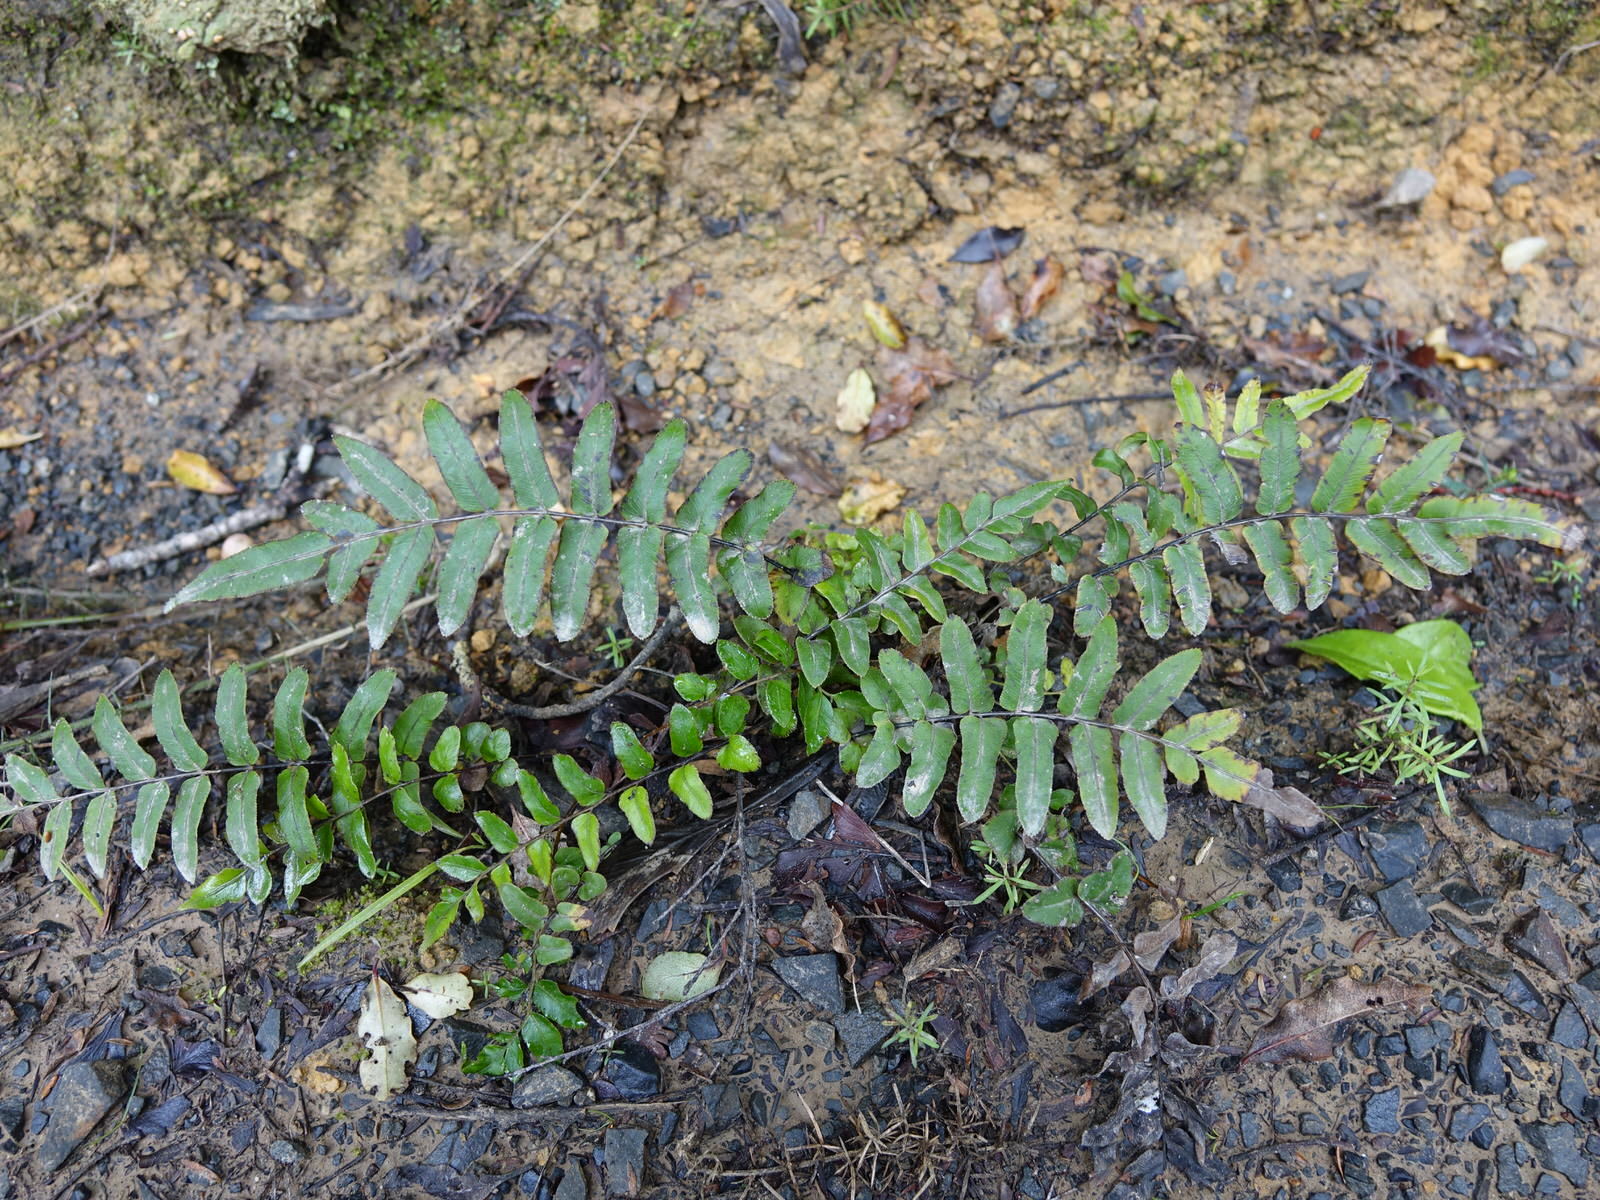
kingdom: Plantae
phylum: Tracheophyta
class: Polypodiopsida
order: Polypodiales
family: Blechnaceae
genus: Parablechnum
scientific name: Parablechnum minus
